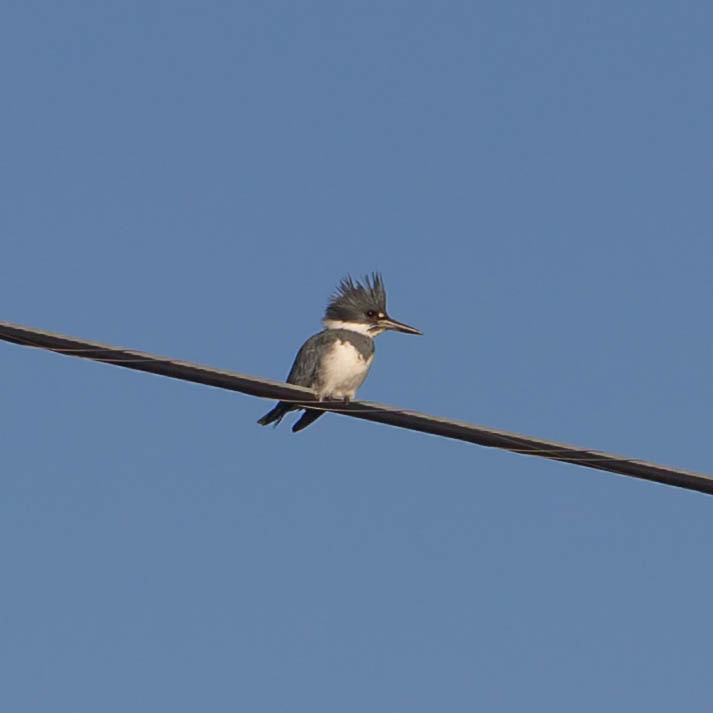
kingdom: Animalia
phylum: Chordata
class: Aves
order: Coraciiformes
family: Alcedinidae
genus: Megaceryle
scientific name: Megaceryle alcyon
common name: Belted kingfisher
